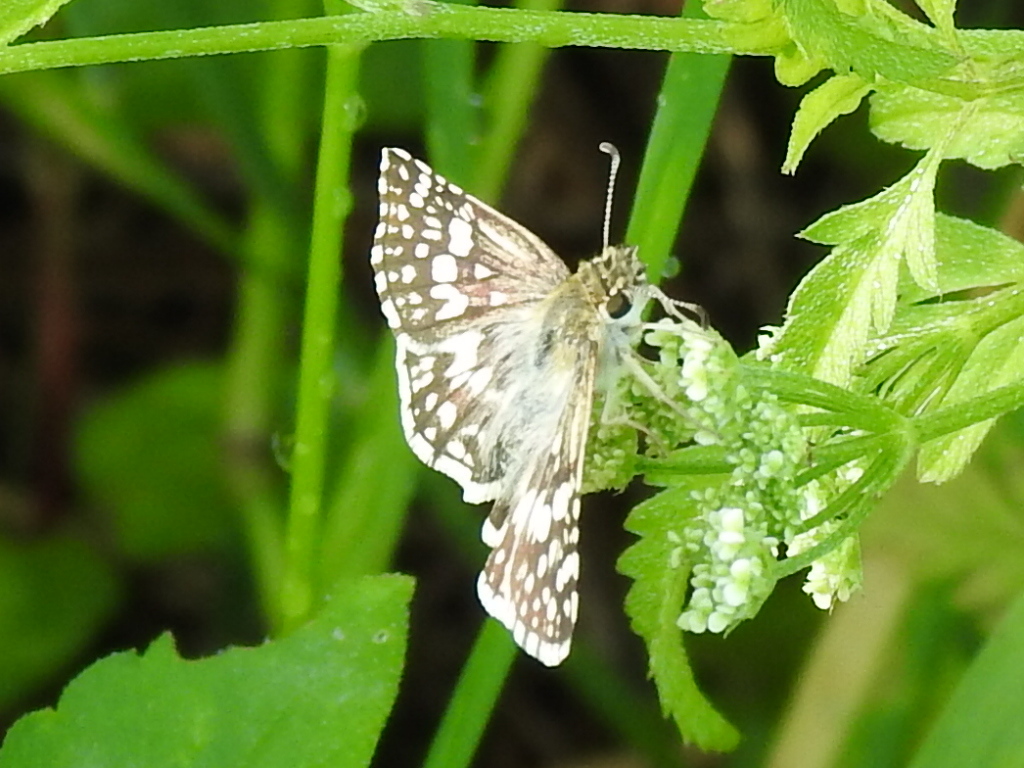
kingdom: Animalia
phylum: Arthropoda
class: Insecta
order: Lepidoptera
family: Hesperiidae
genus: Burnsius
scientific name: Burnsius
